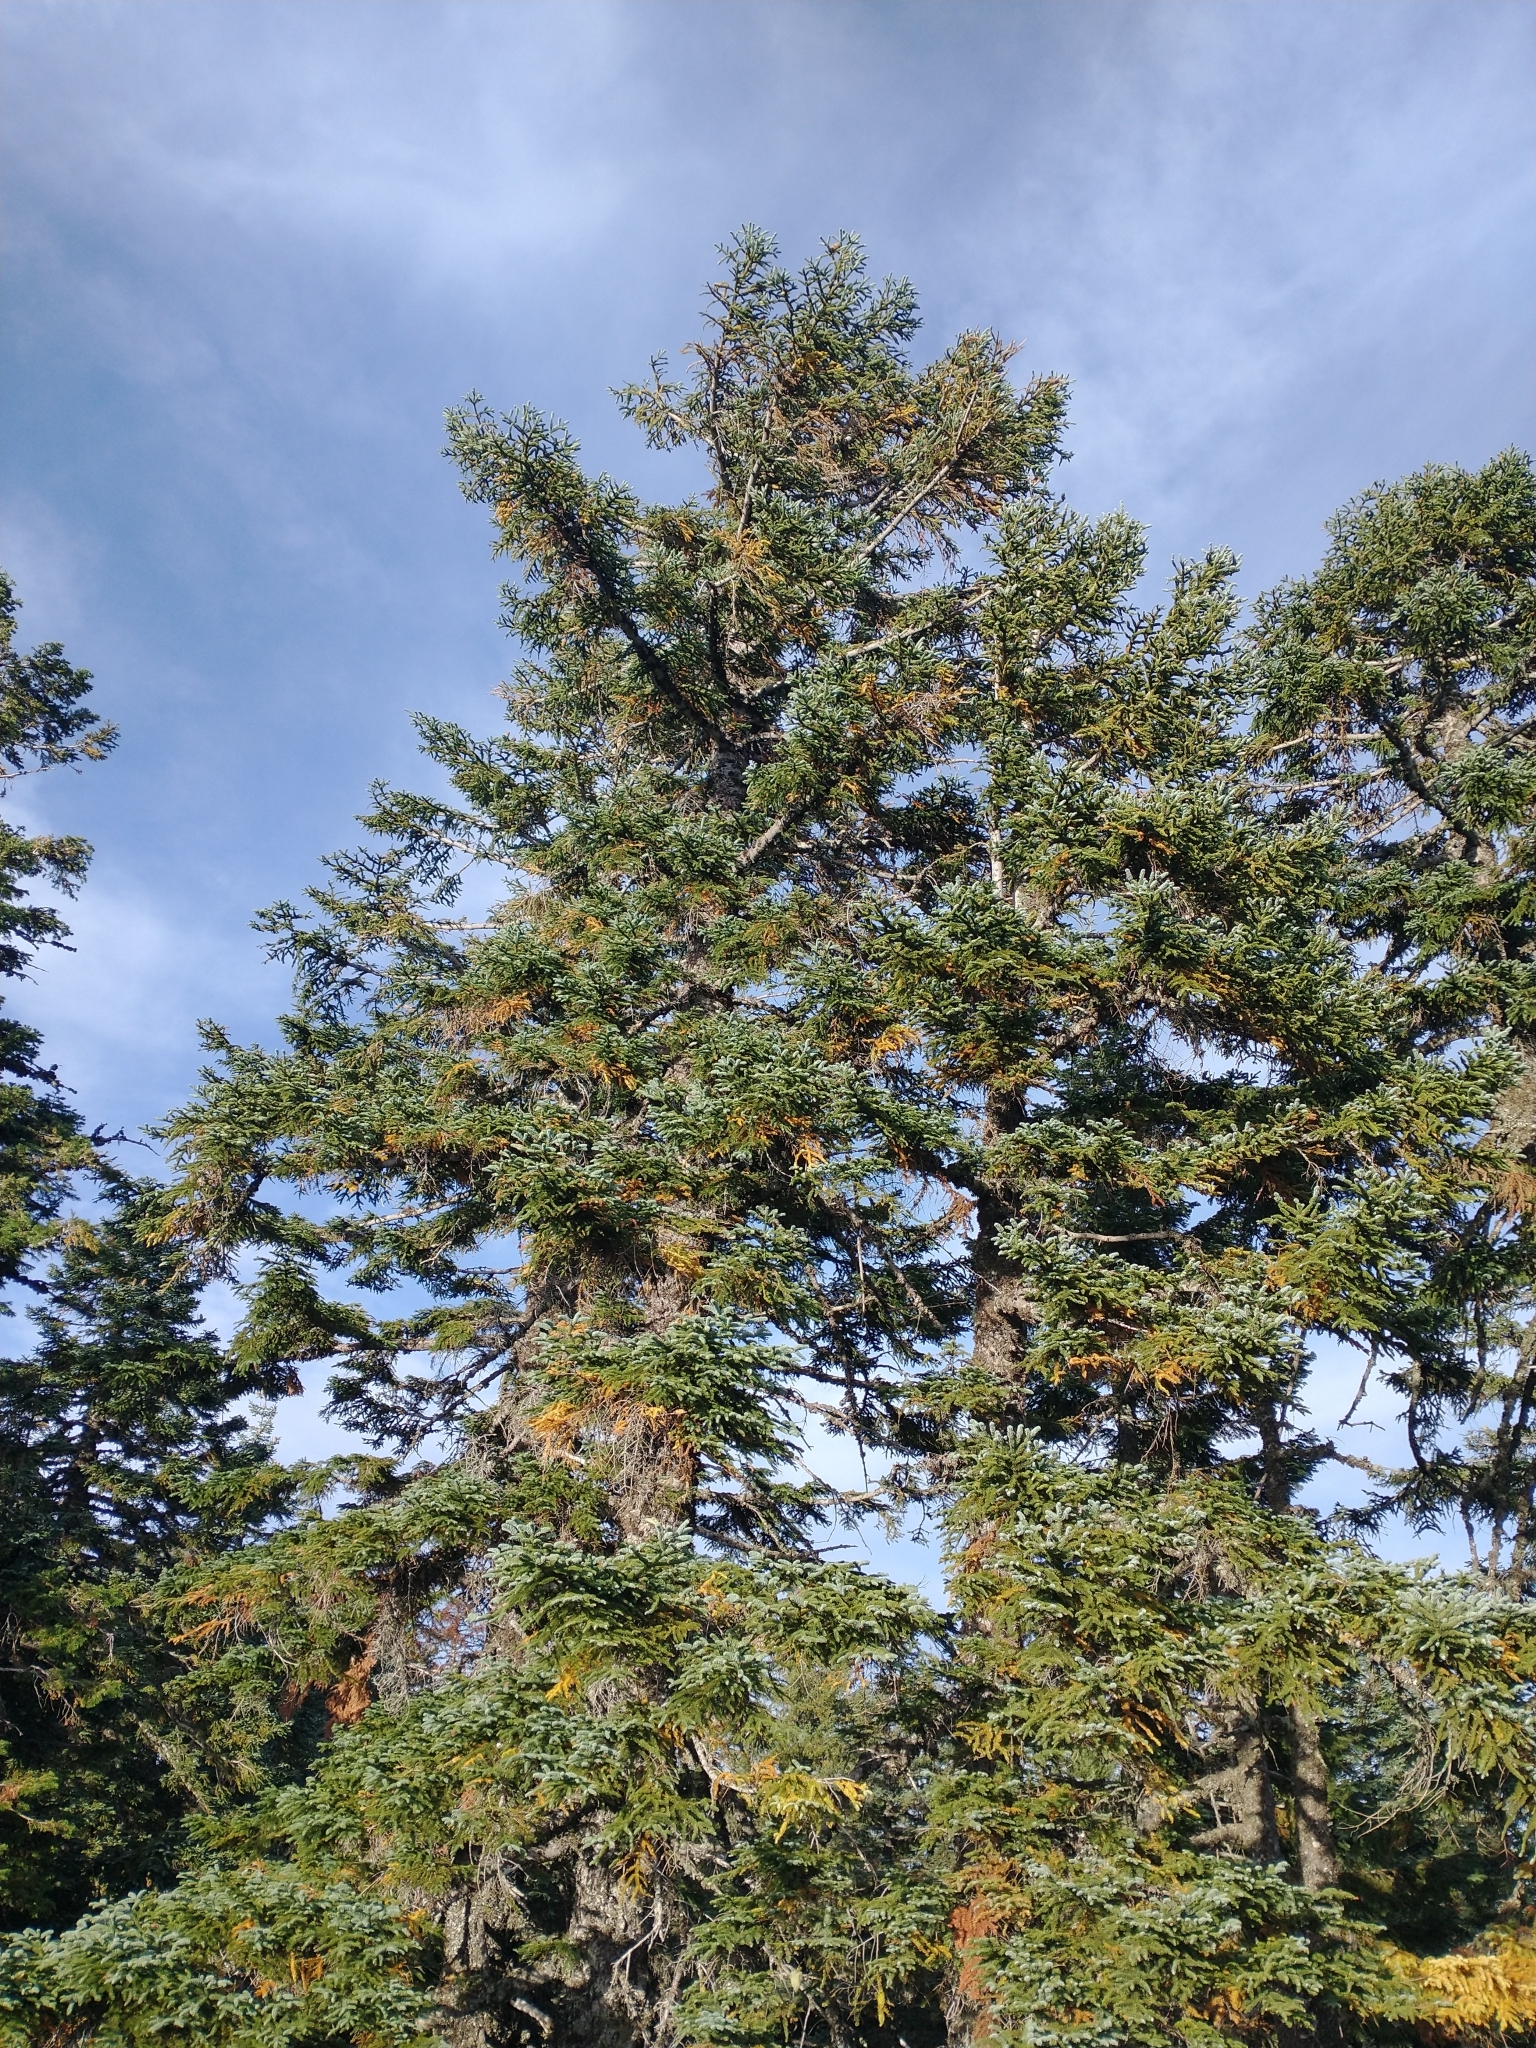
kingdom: Plantae
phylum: Tracheophyta
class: Pinopsida
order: Pinales
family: Pinaceae
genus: Abies
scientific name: Abies procera
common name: Noble fir
